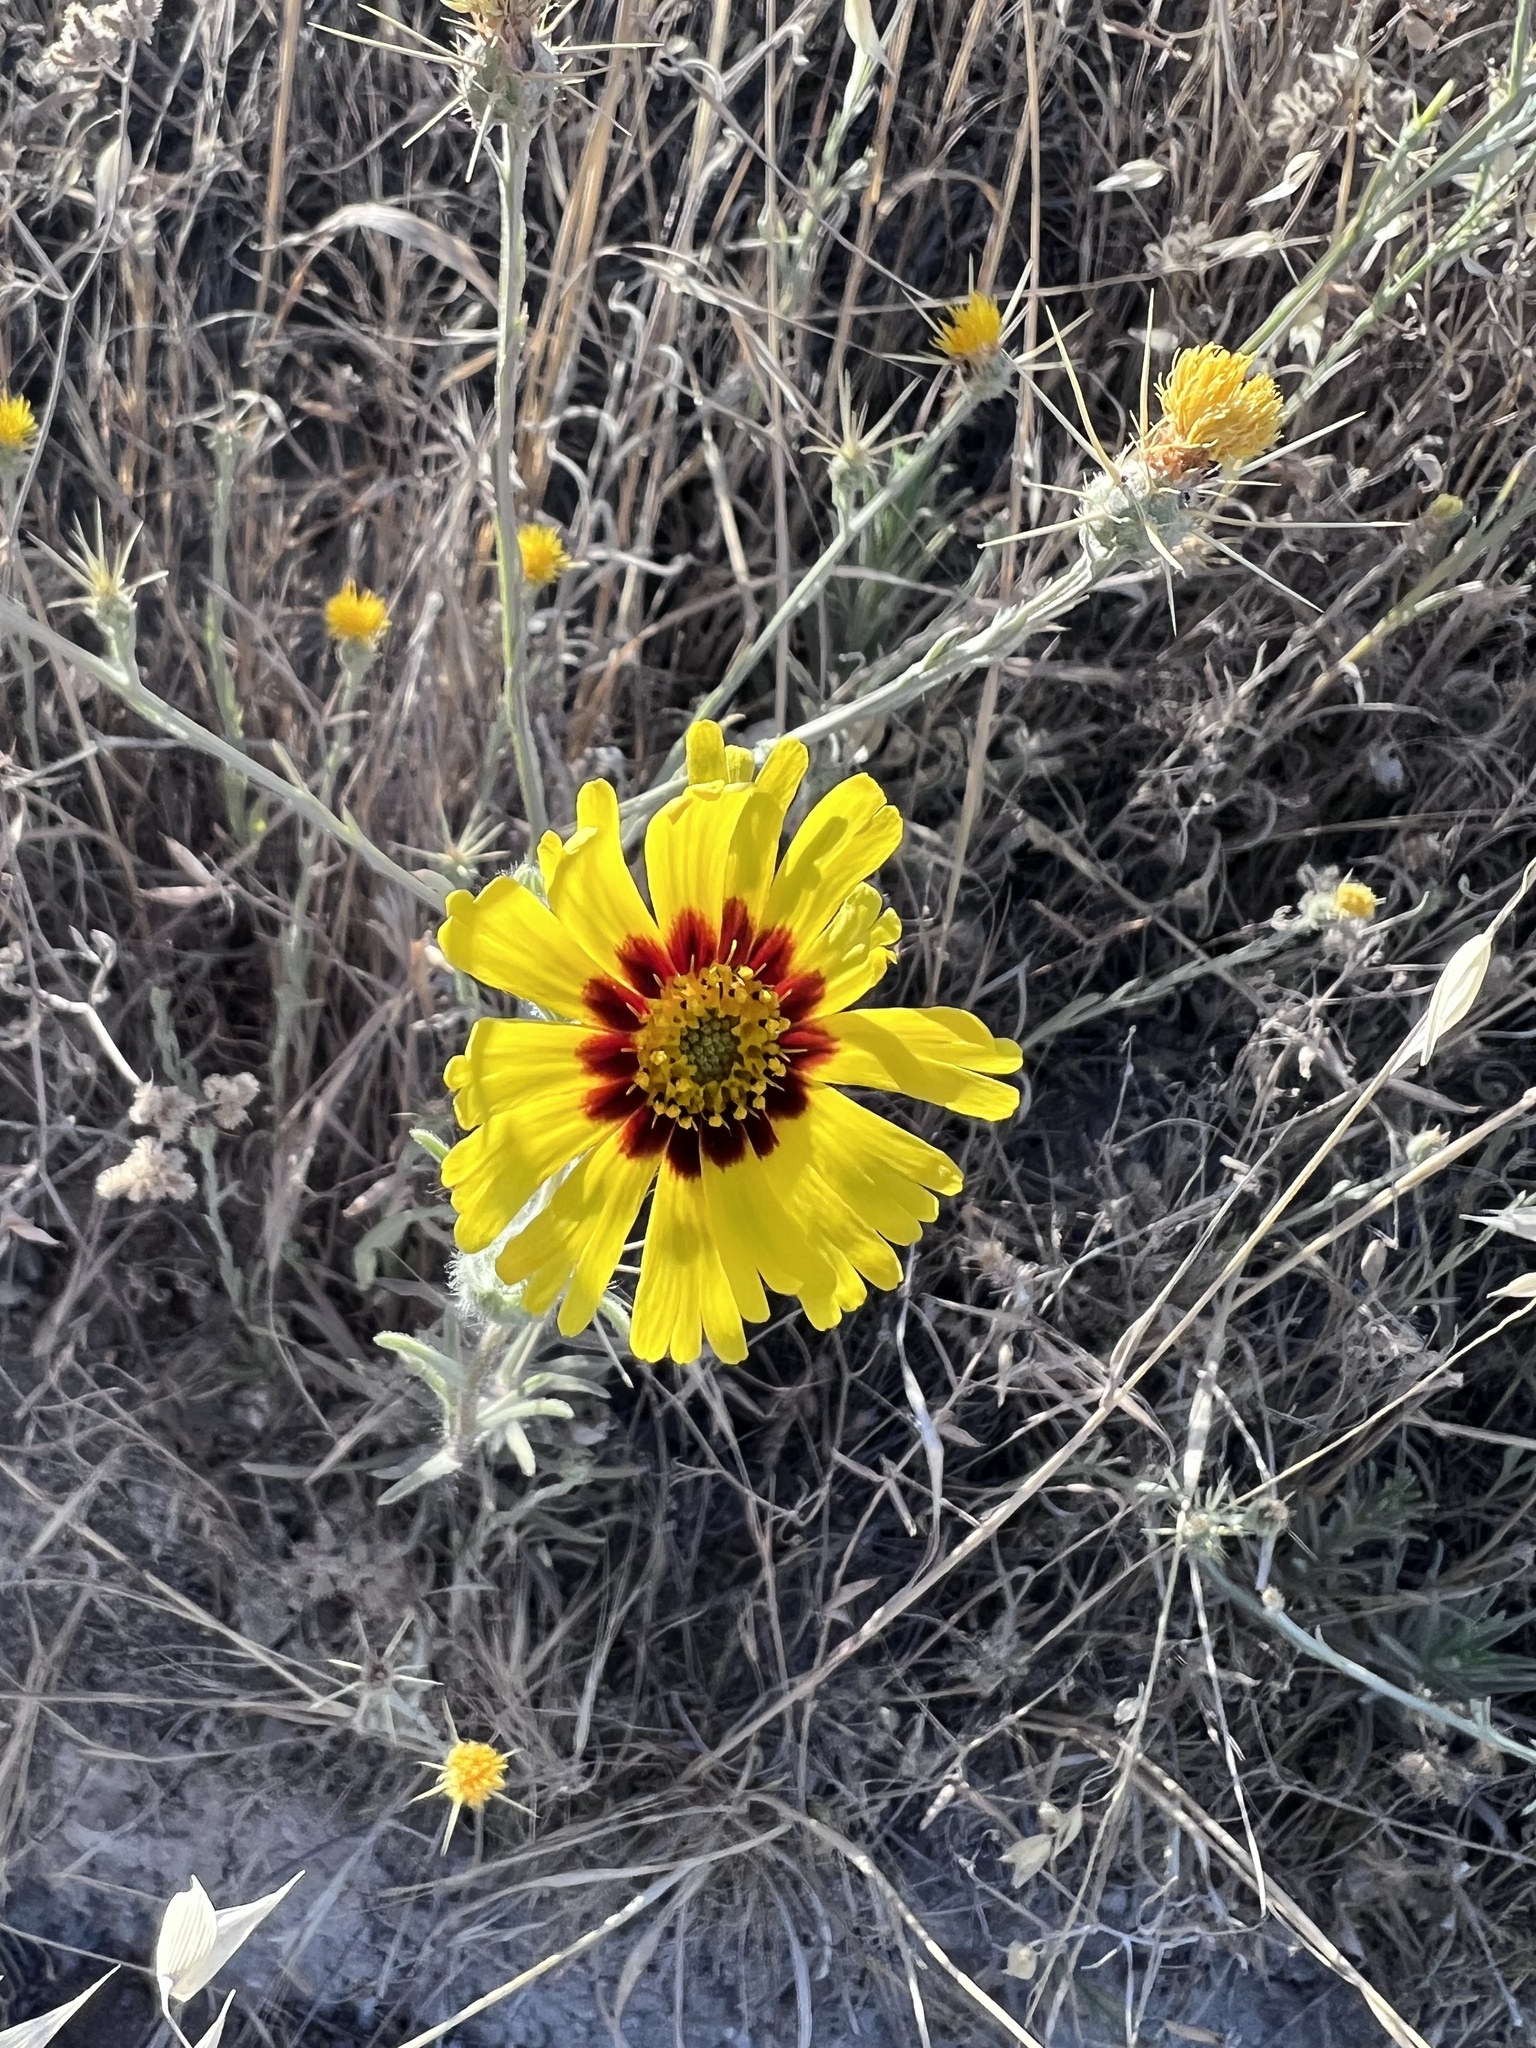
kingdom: Plantae
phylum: Tracheophyta
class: Magnoliopsida
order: Asterales
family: Asteraceae
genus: Madia
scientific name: Madia elegans
